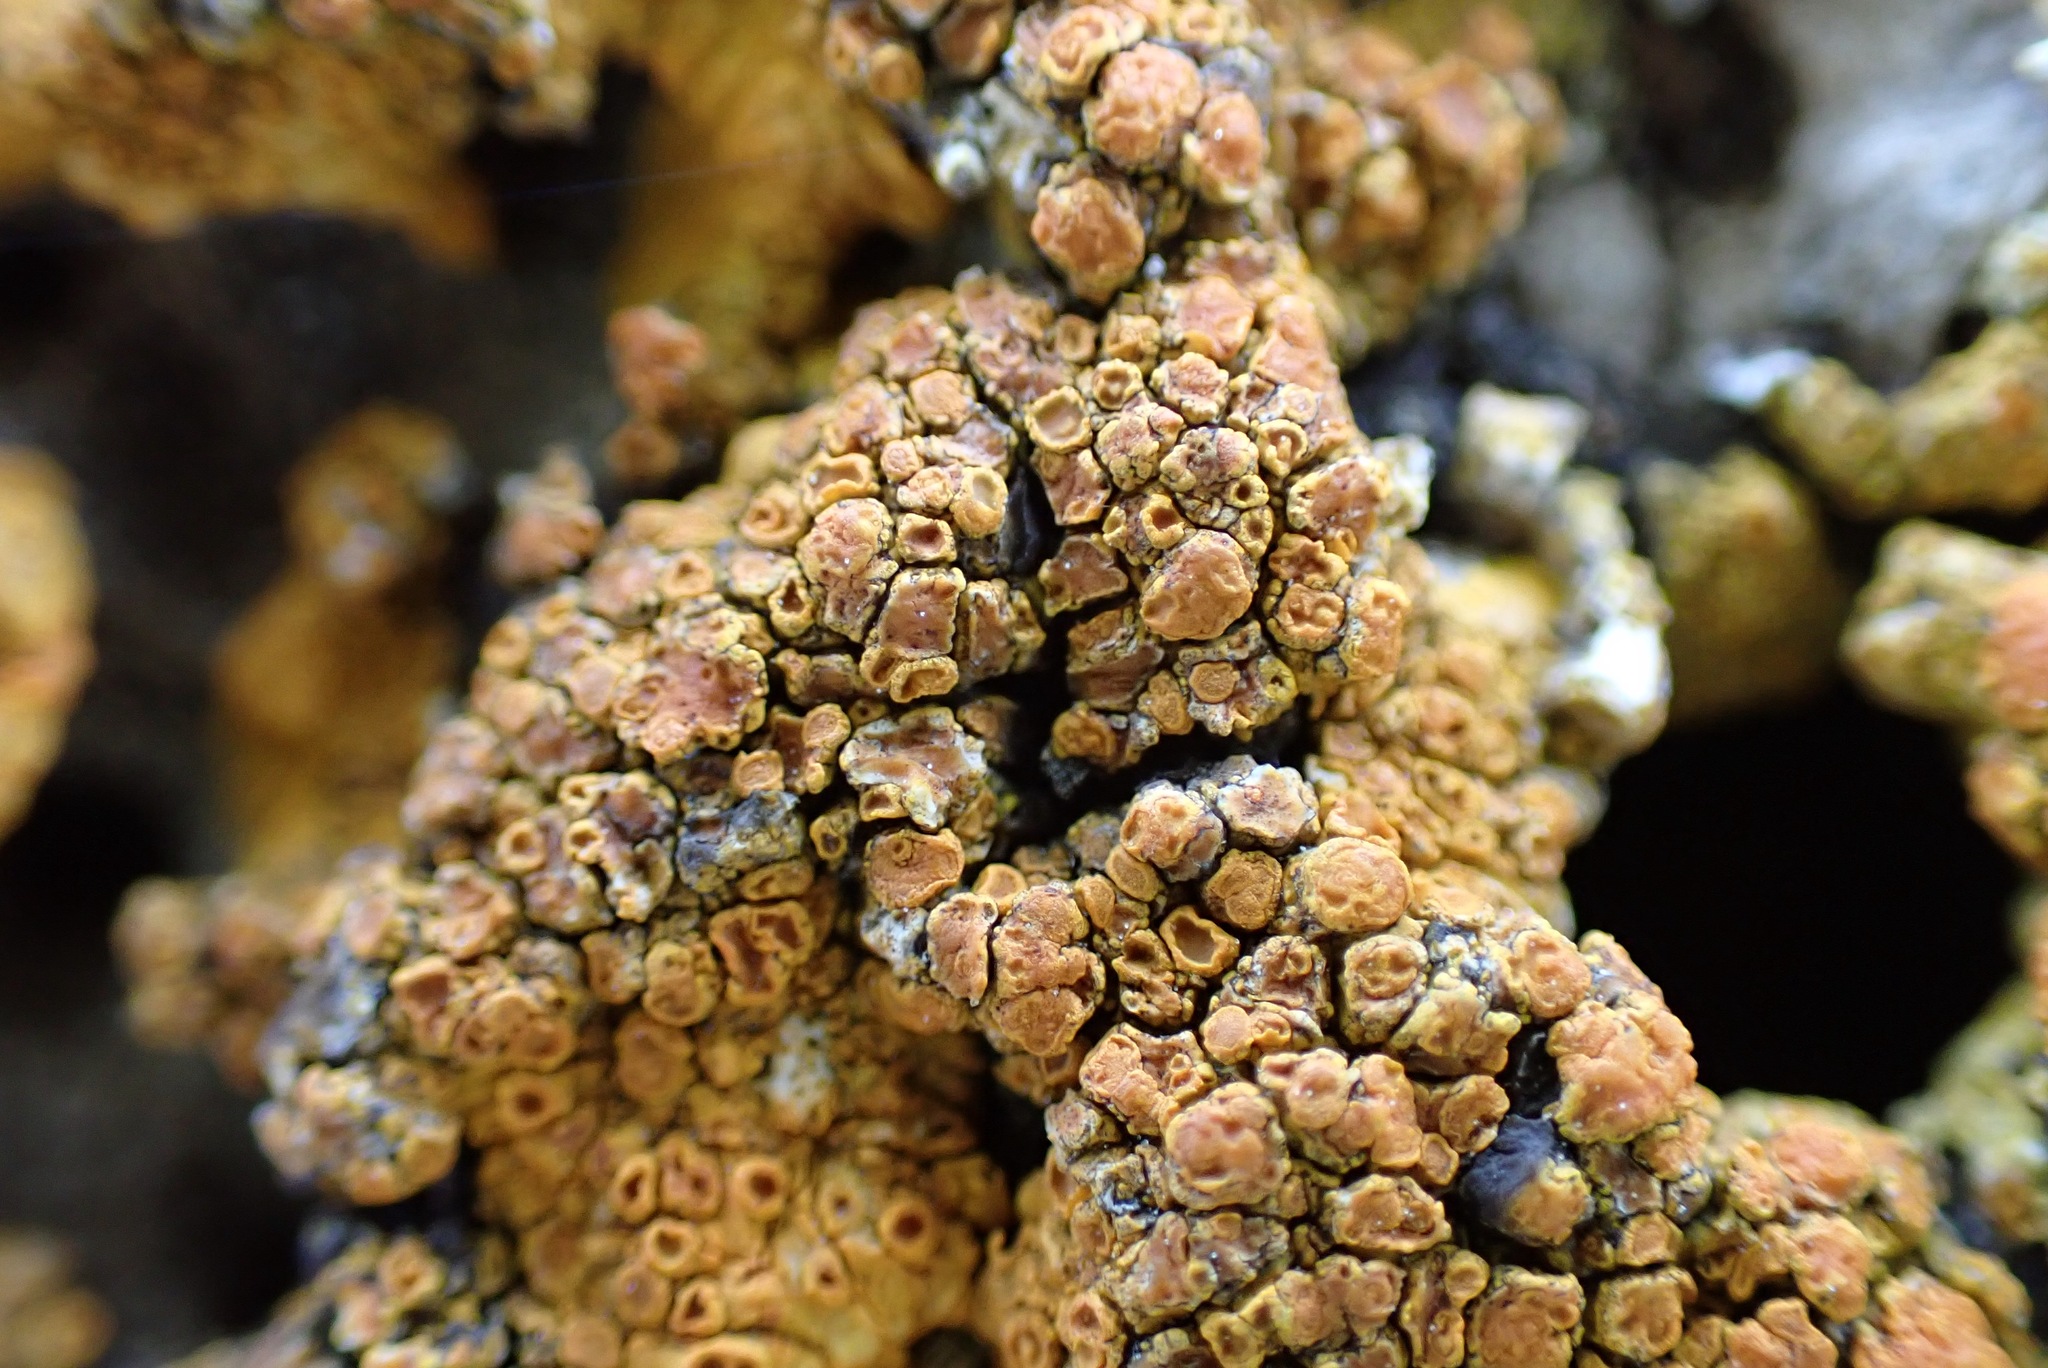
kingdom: Fungi
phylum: Ascomycota
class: Lecanoromycetes
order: Teloschistales
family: Teloschistaceae
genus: Variospora
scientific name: Variospora aurantia
